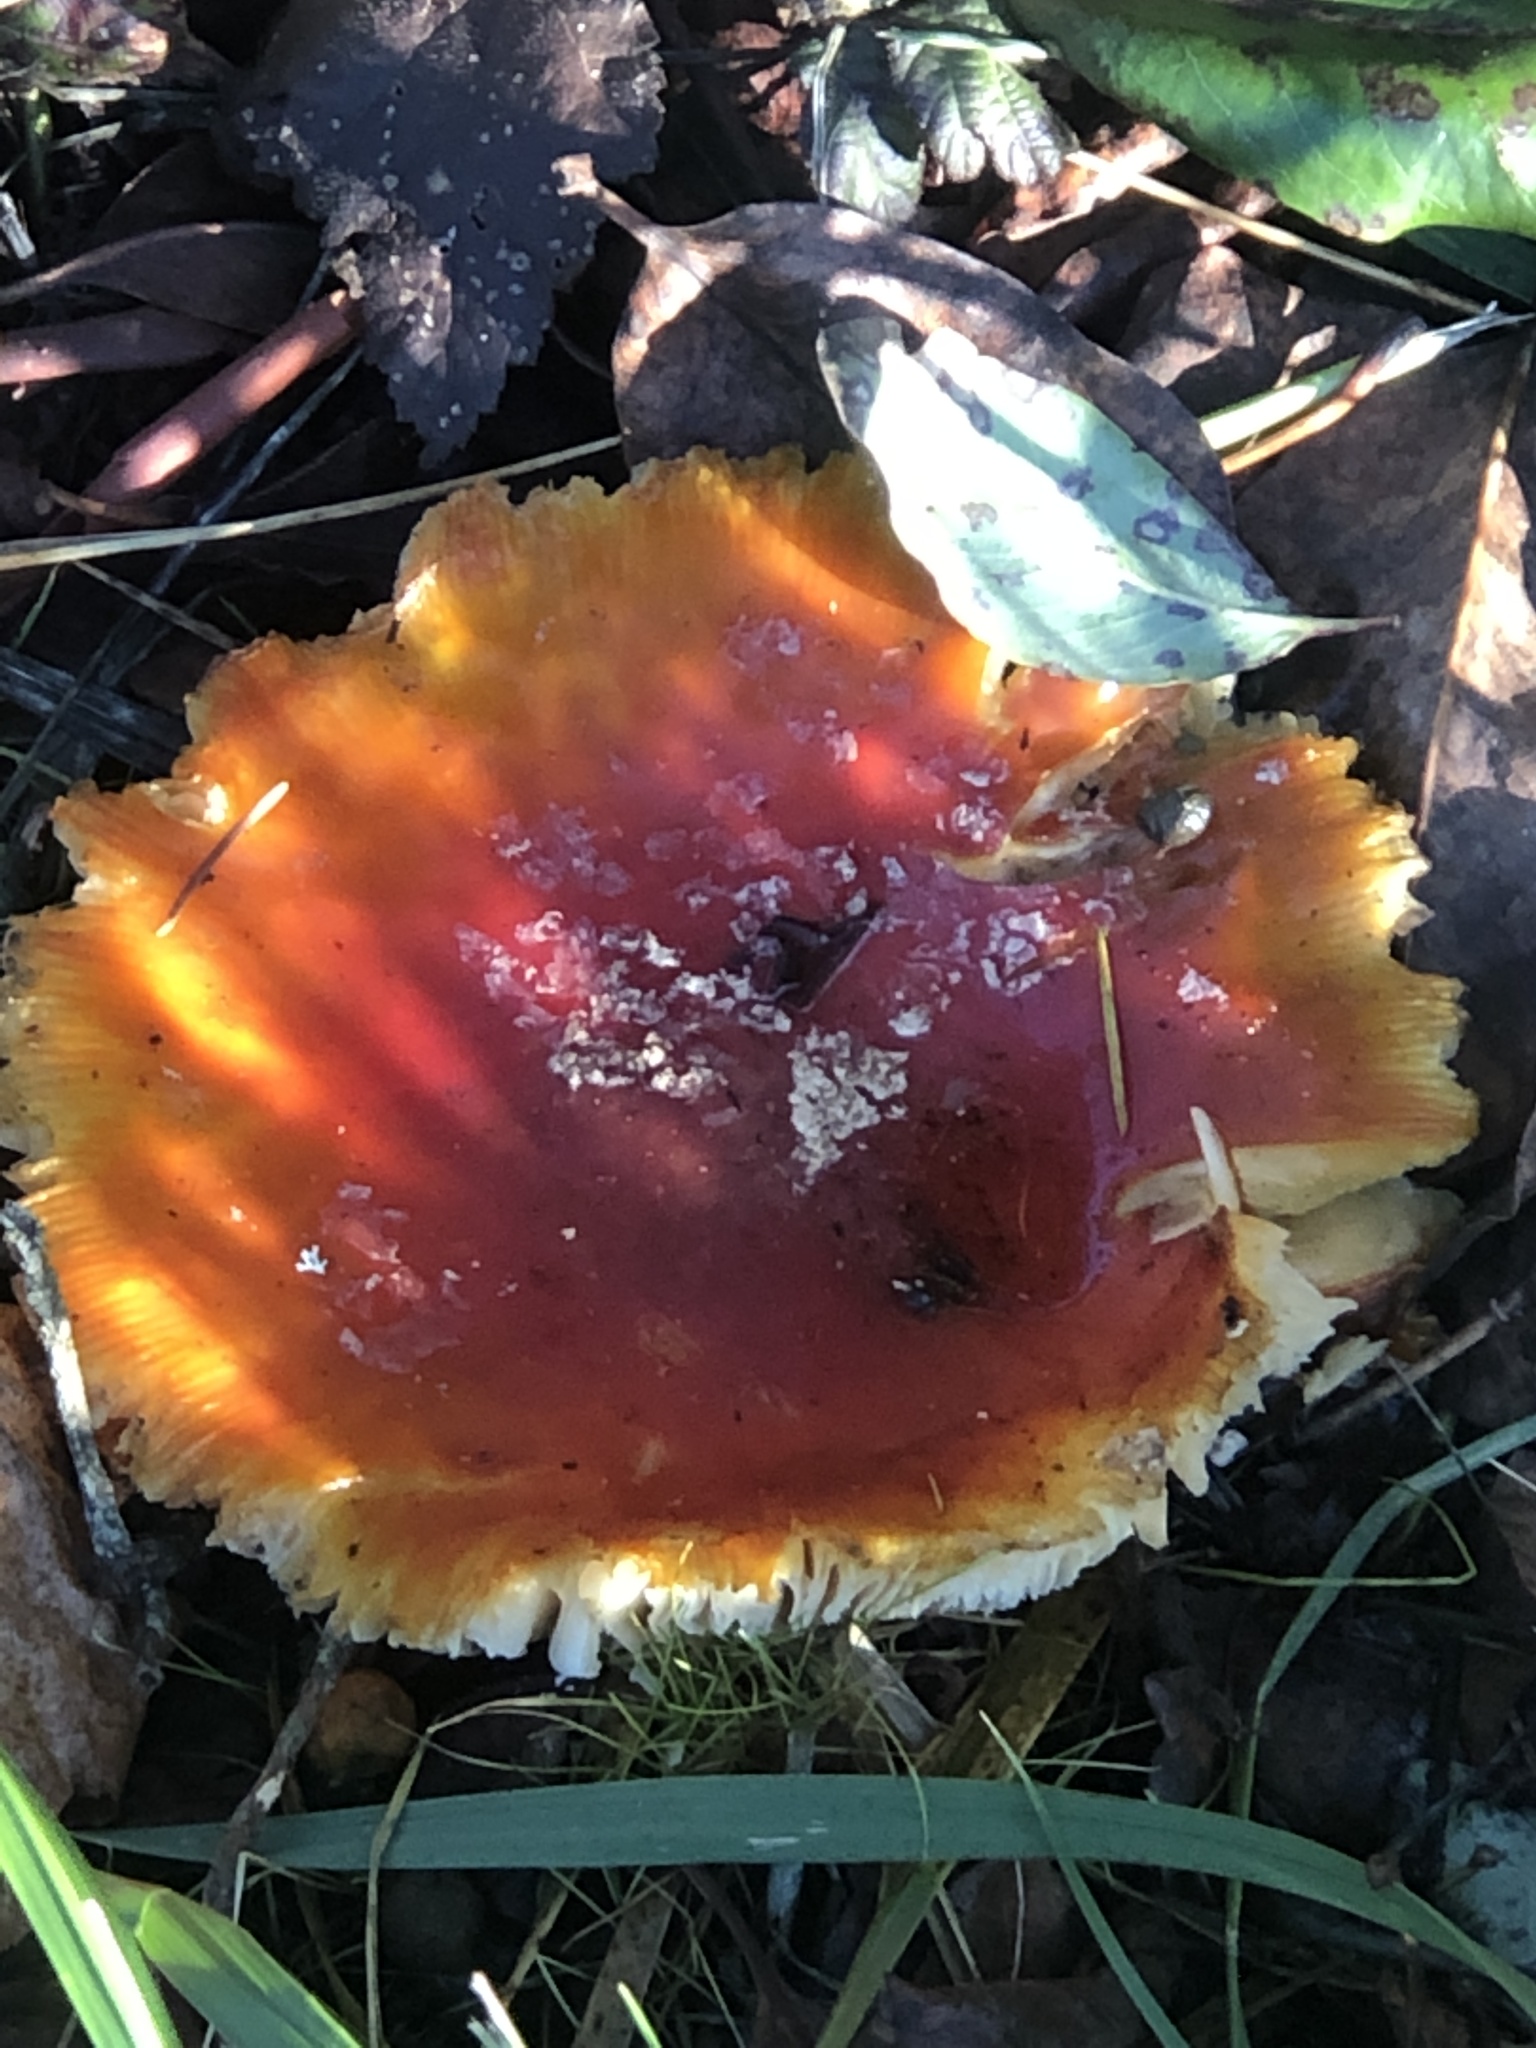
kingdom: Fungi
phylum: Basidiomycota
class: Agaricomycetes
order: Agaricales
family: Amanitaceae
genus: Amanita
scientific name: Amanita muscaria
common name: Fly agaric
